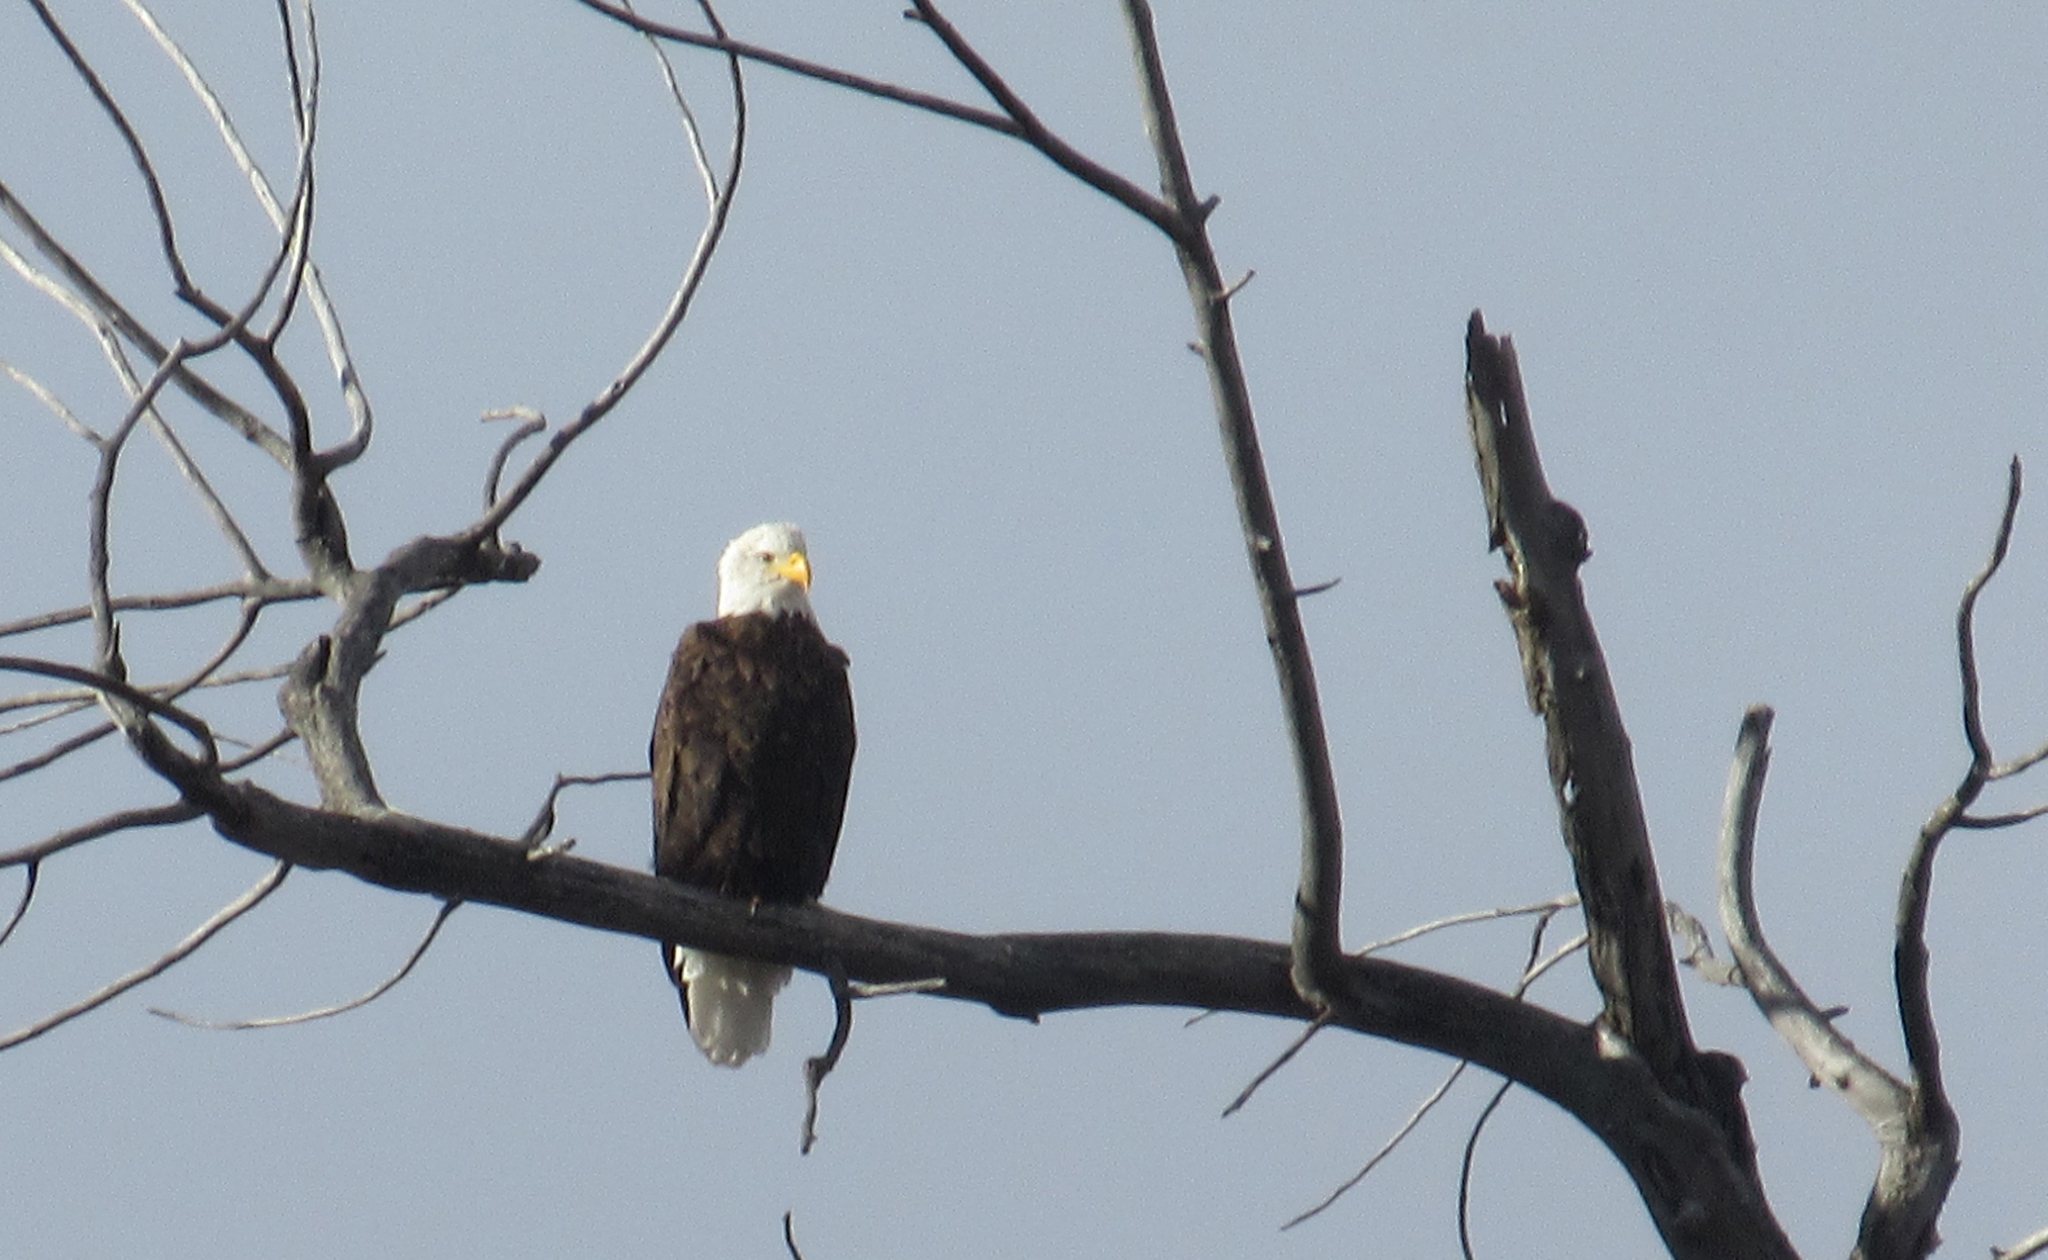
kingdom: Animalia
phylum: Chordata
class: Aves
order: Accipitriformes
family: Accipitridae
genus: Haliaeetus
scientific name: Haliaeetus leucocephalus
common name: Bald eagle
